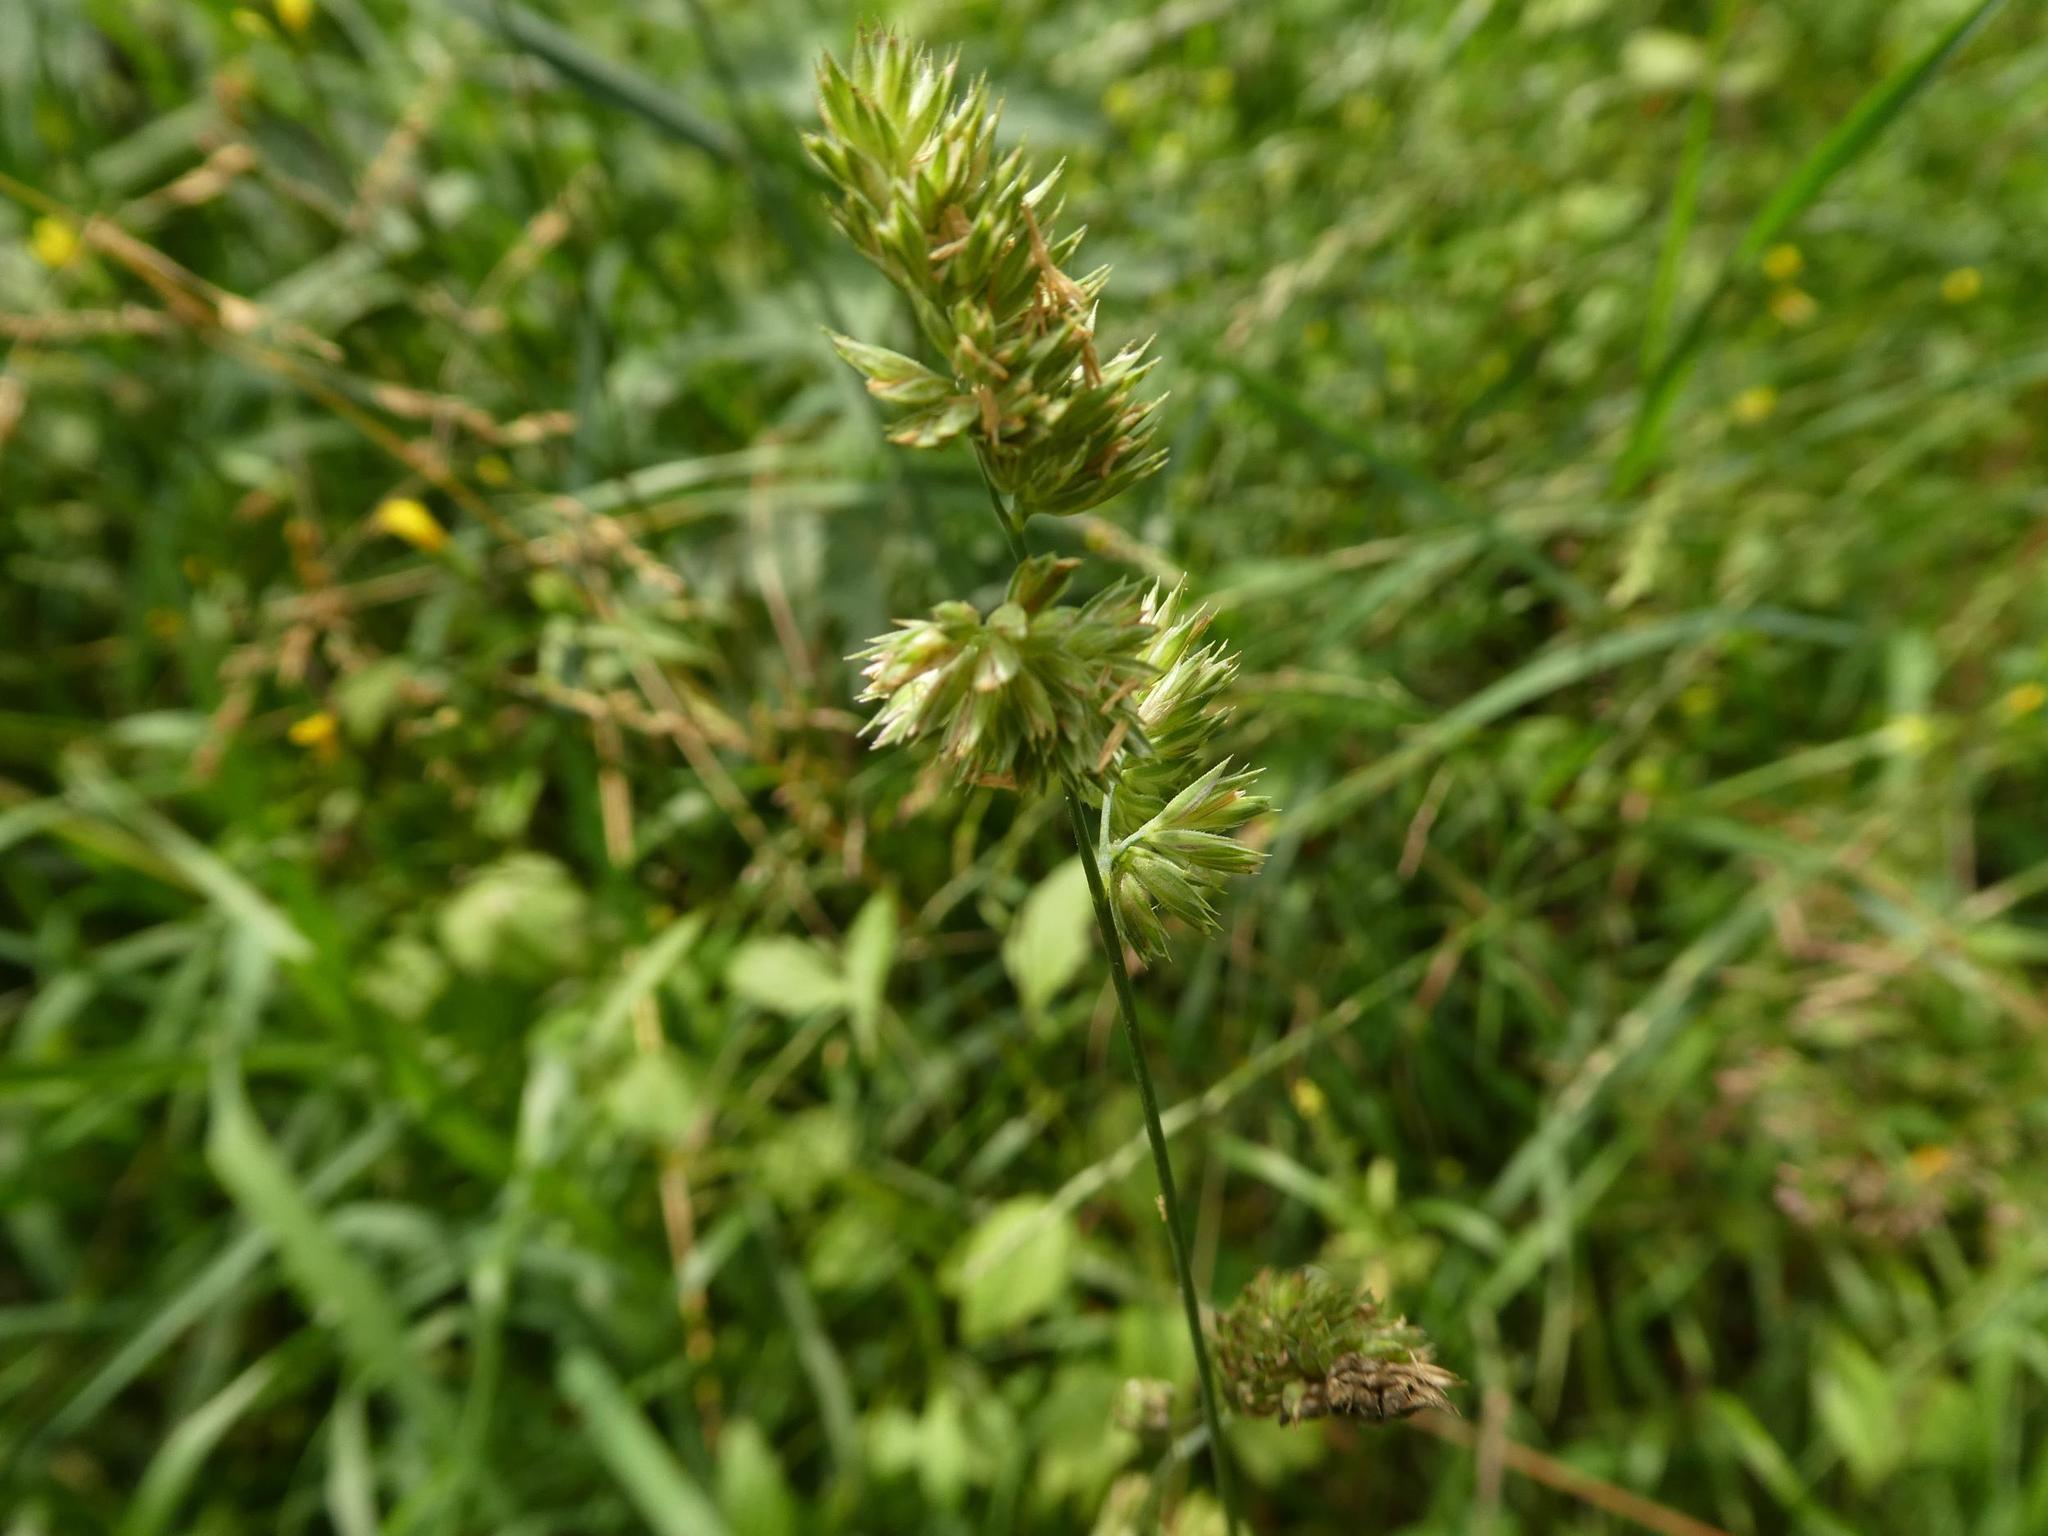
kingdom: Plantae
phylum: Tracheophyta
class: Liliopsida
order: Poales
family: Poaceae
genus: Dactylis
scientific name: Dactylis glomerata
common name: Orchardgrass
